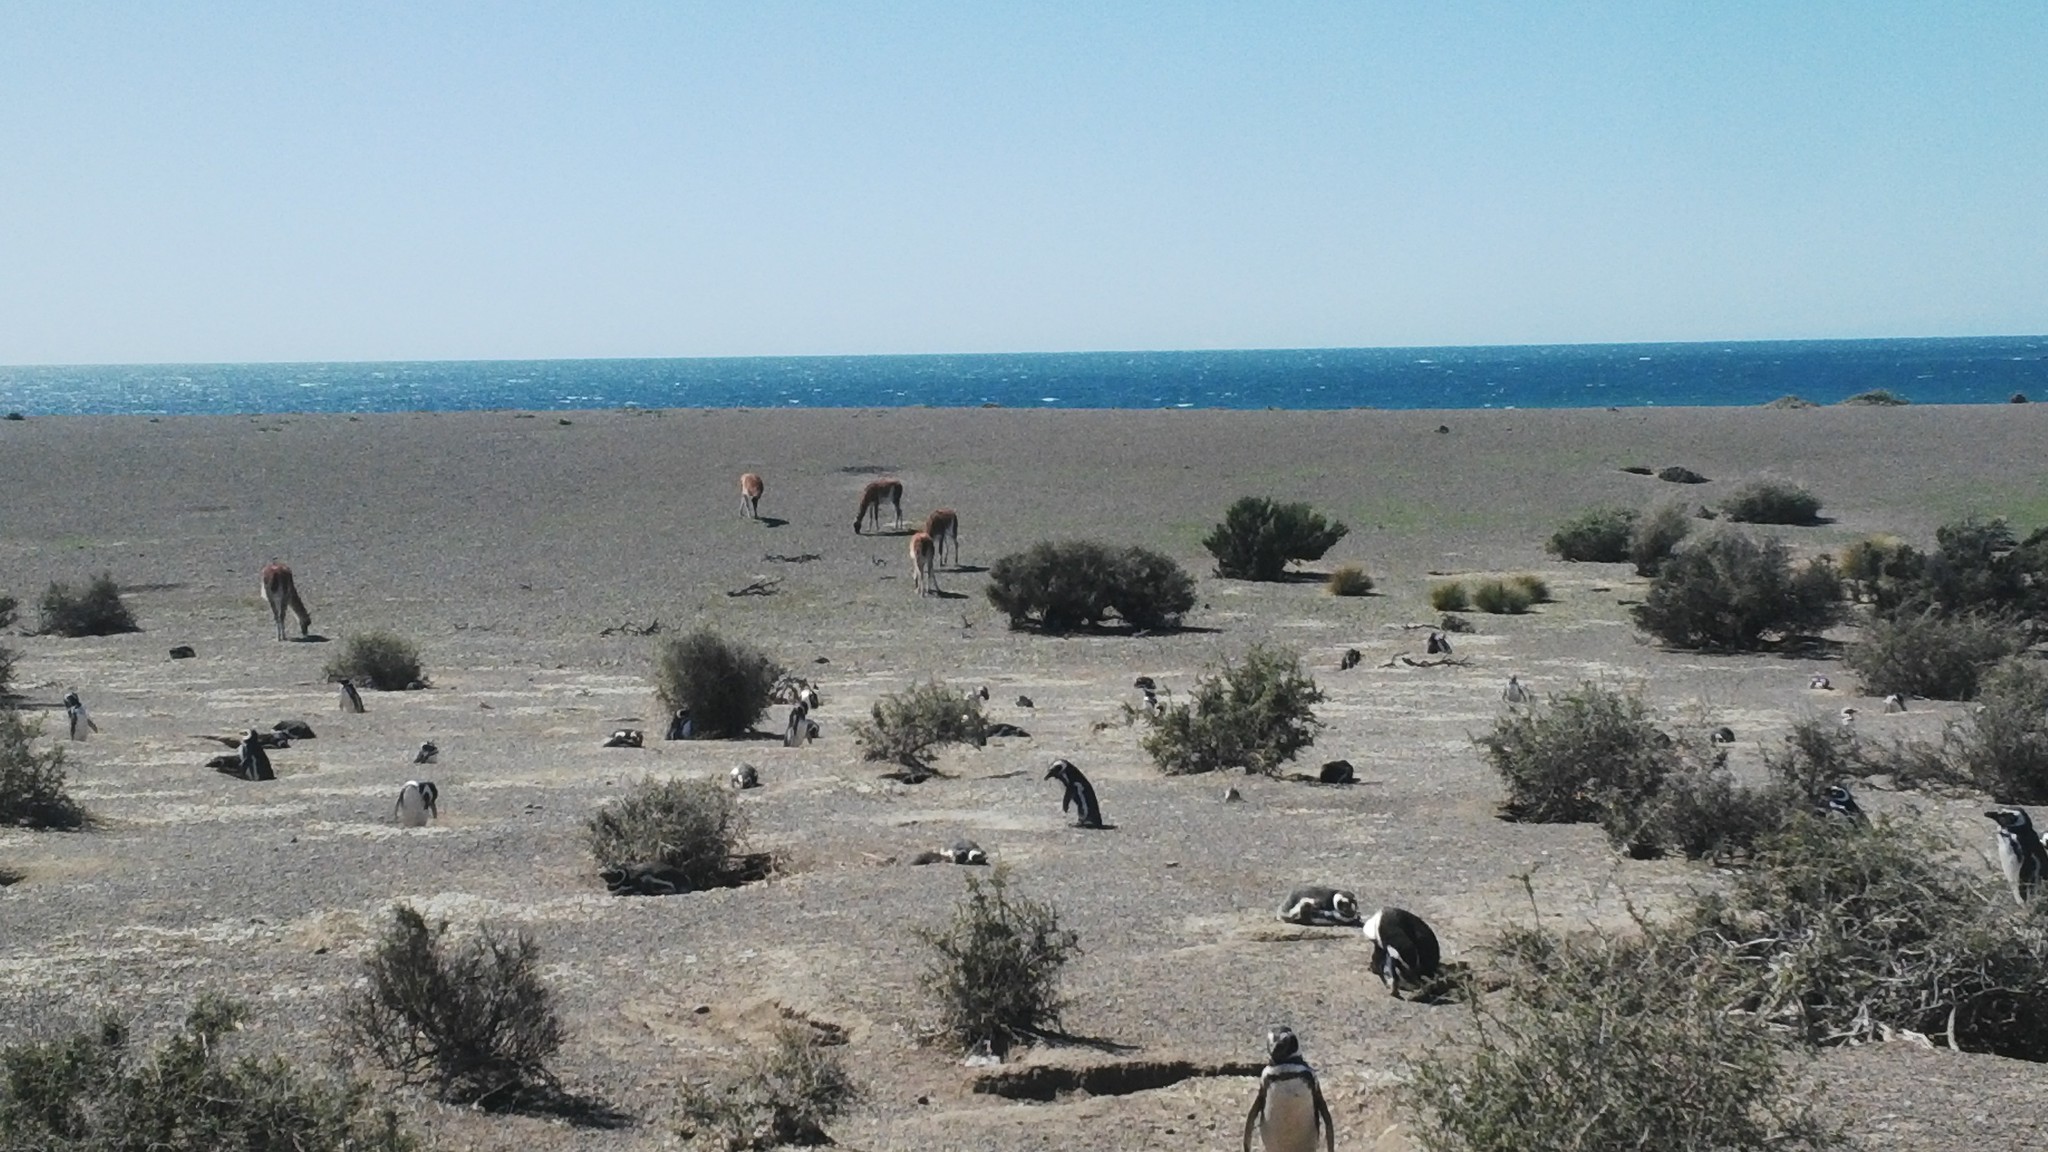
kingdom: Animalia
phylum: Chordata
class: Mammalia
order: Artiodactyla
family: Camelidae
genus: Lama
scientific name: Lama glama
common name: Llama
